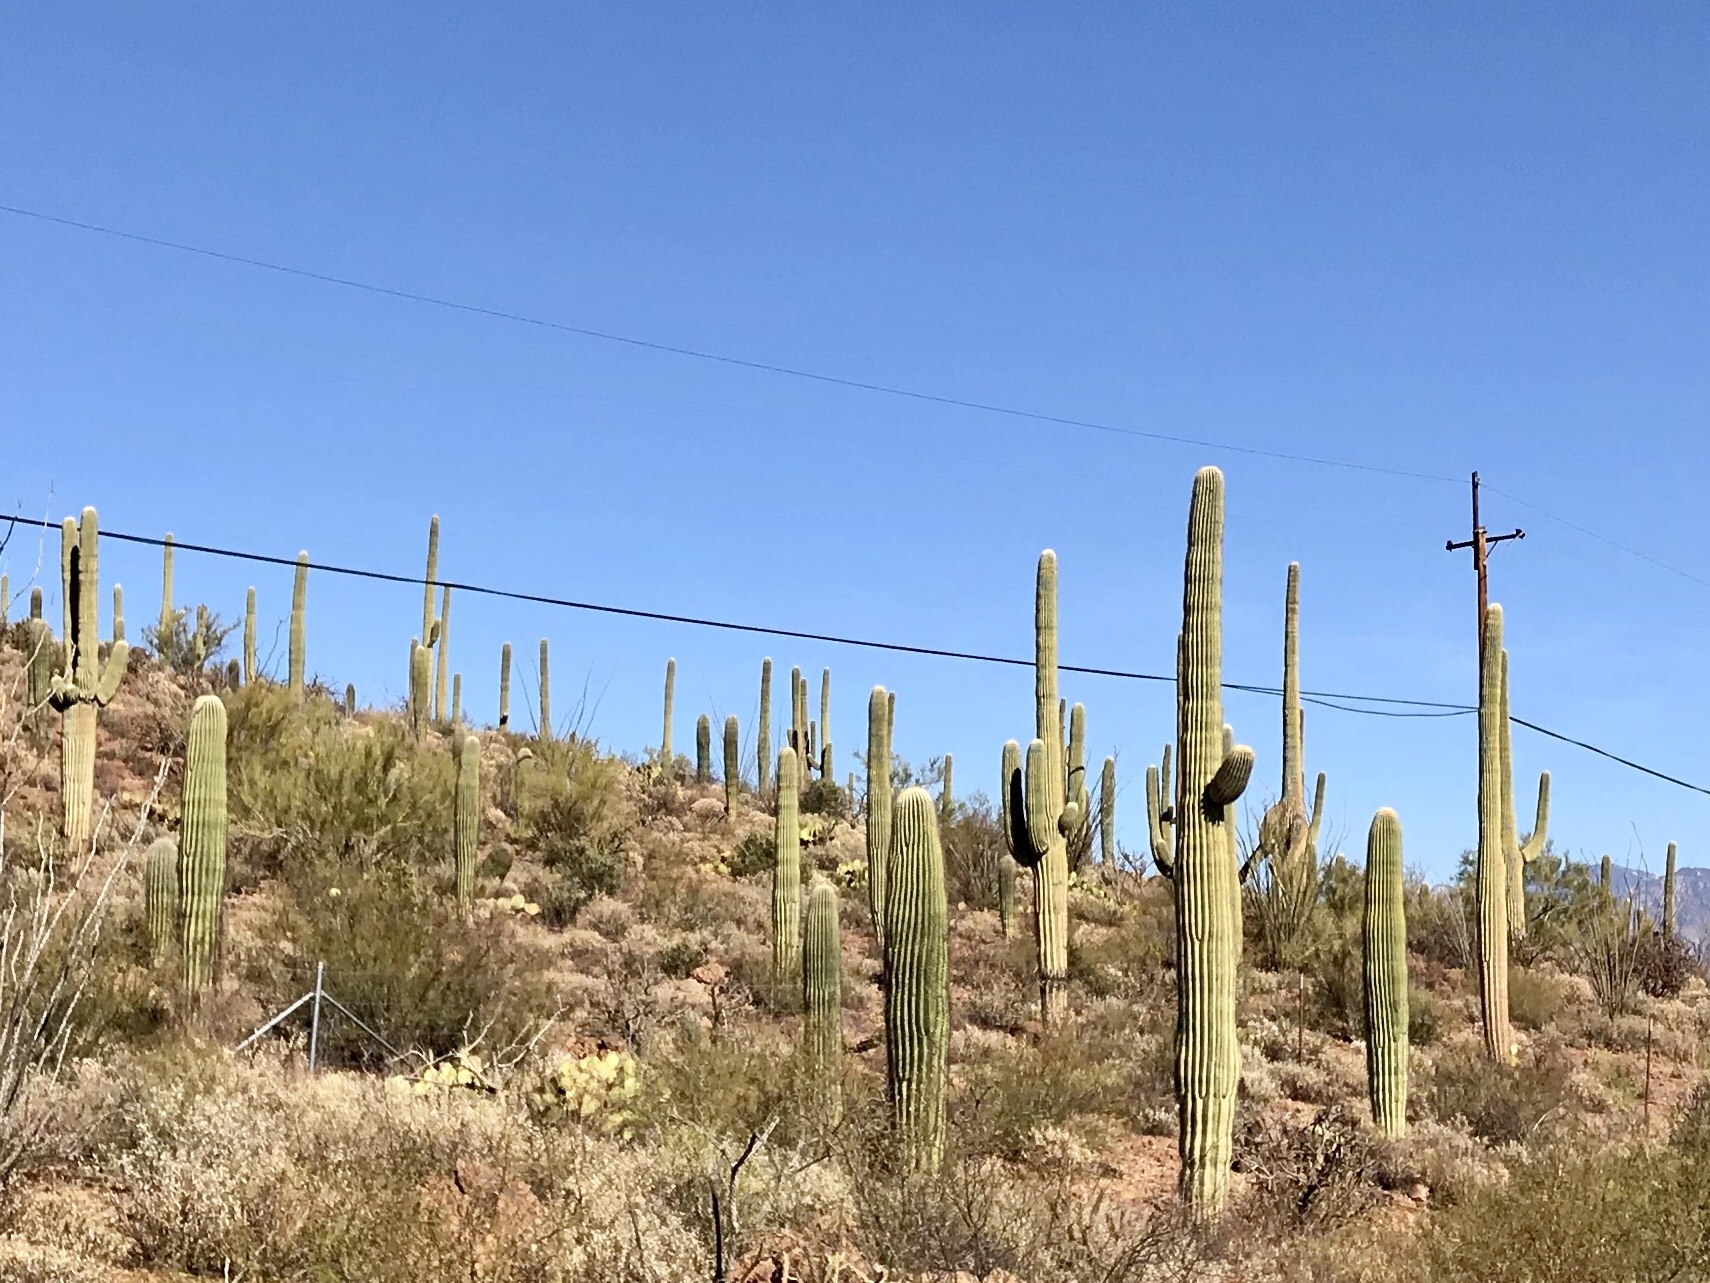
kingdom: Plantae
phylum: Tracheophyta
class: Magnoliopsida
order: Caryophyllales
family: Cactaceae
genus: Carnegiea
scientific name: Carnegiea gigantea
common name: Saguaro
